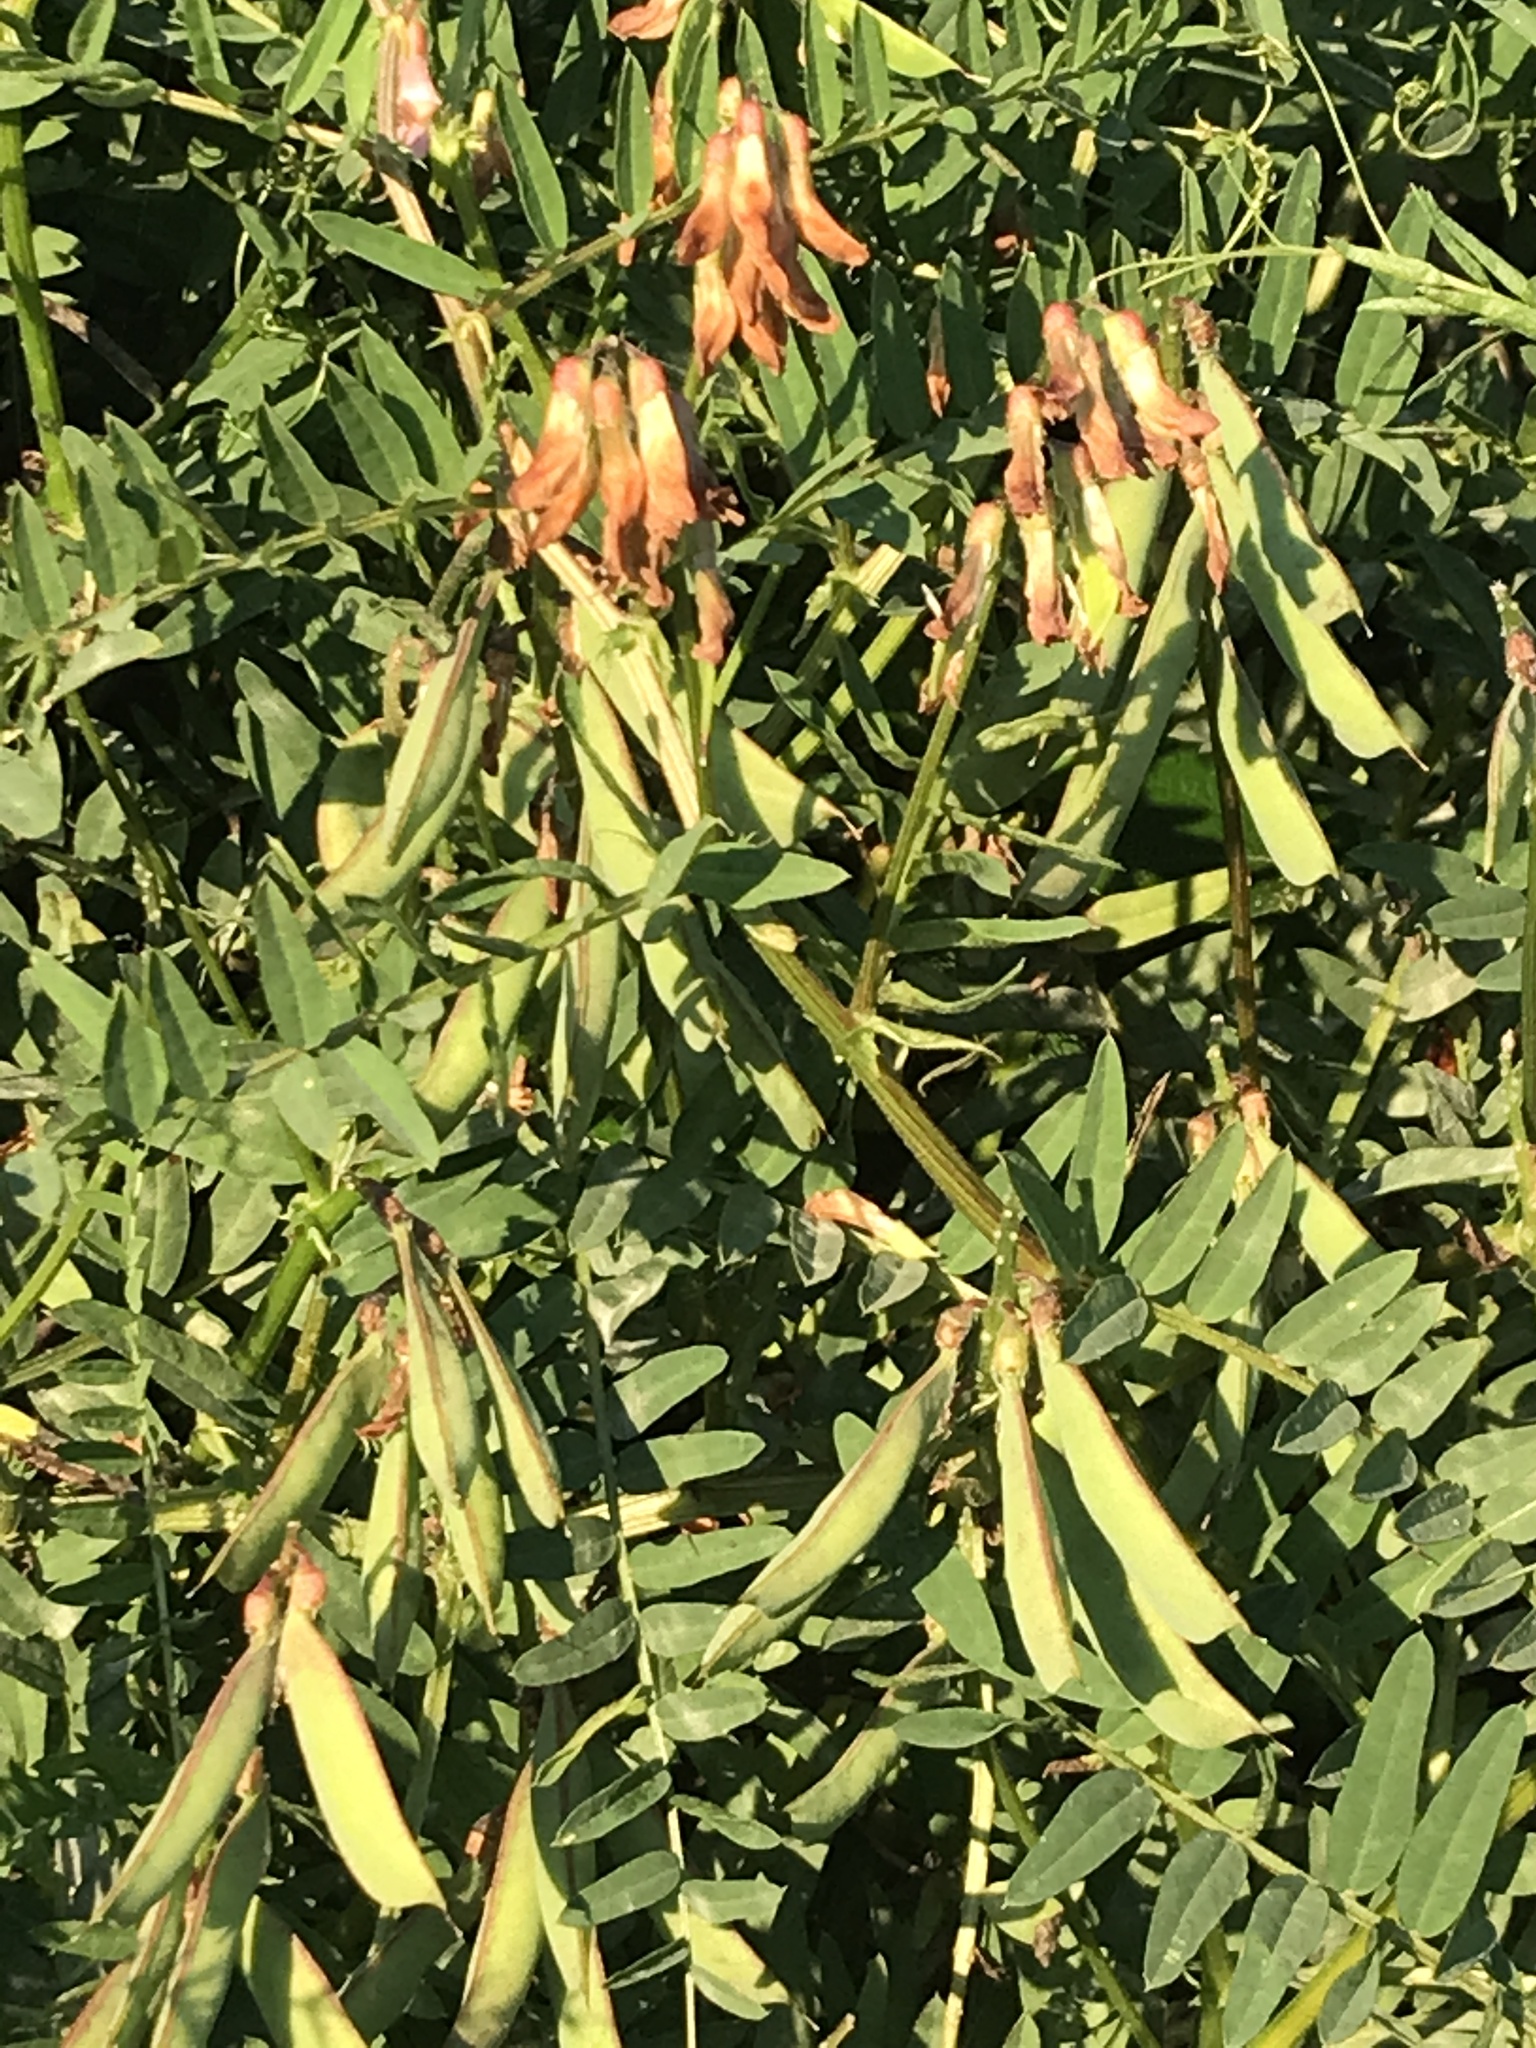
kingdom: Plantae
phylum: Tracheophyta
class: Magnoliopsida
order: Fabales
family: Fabaceae
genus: Vicia
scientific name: Vicia
